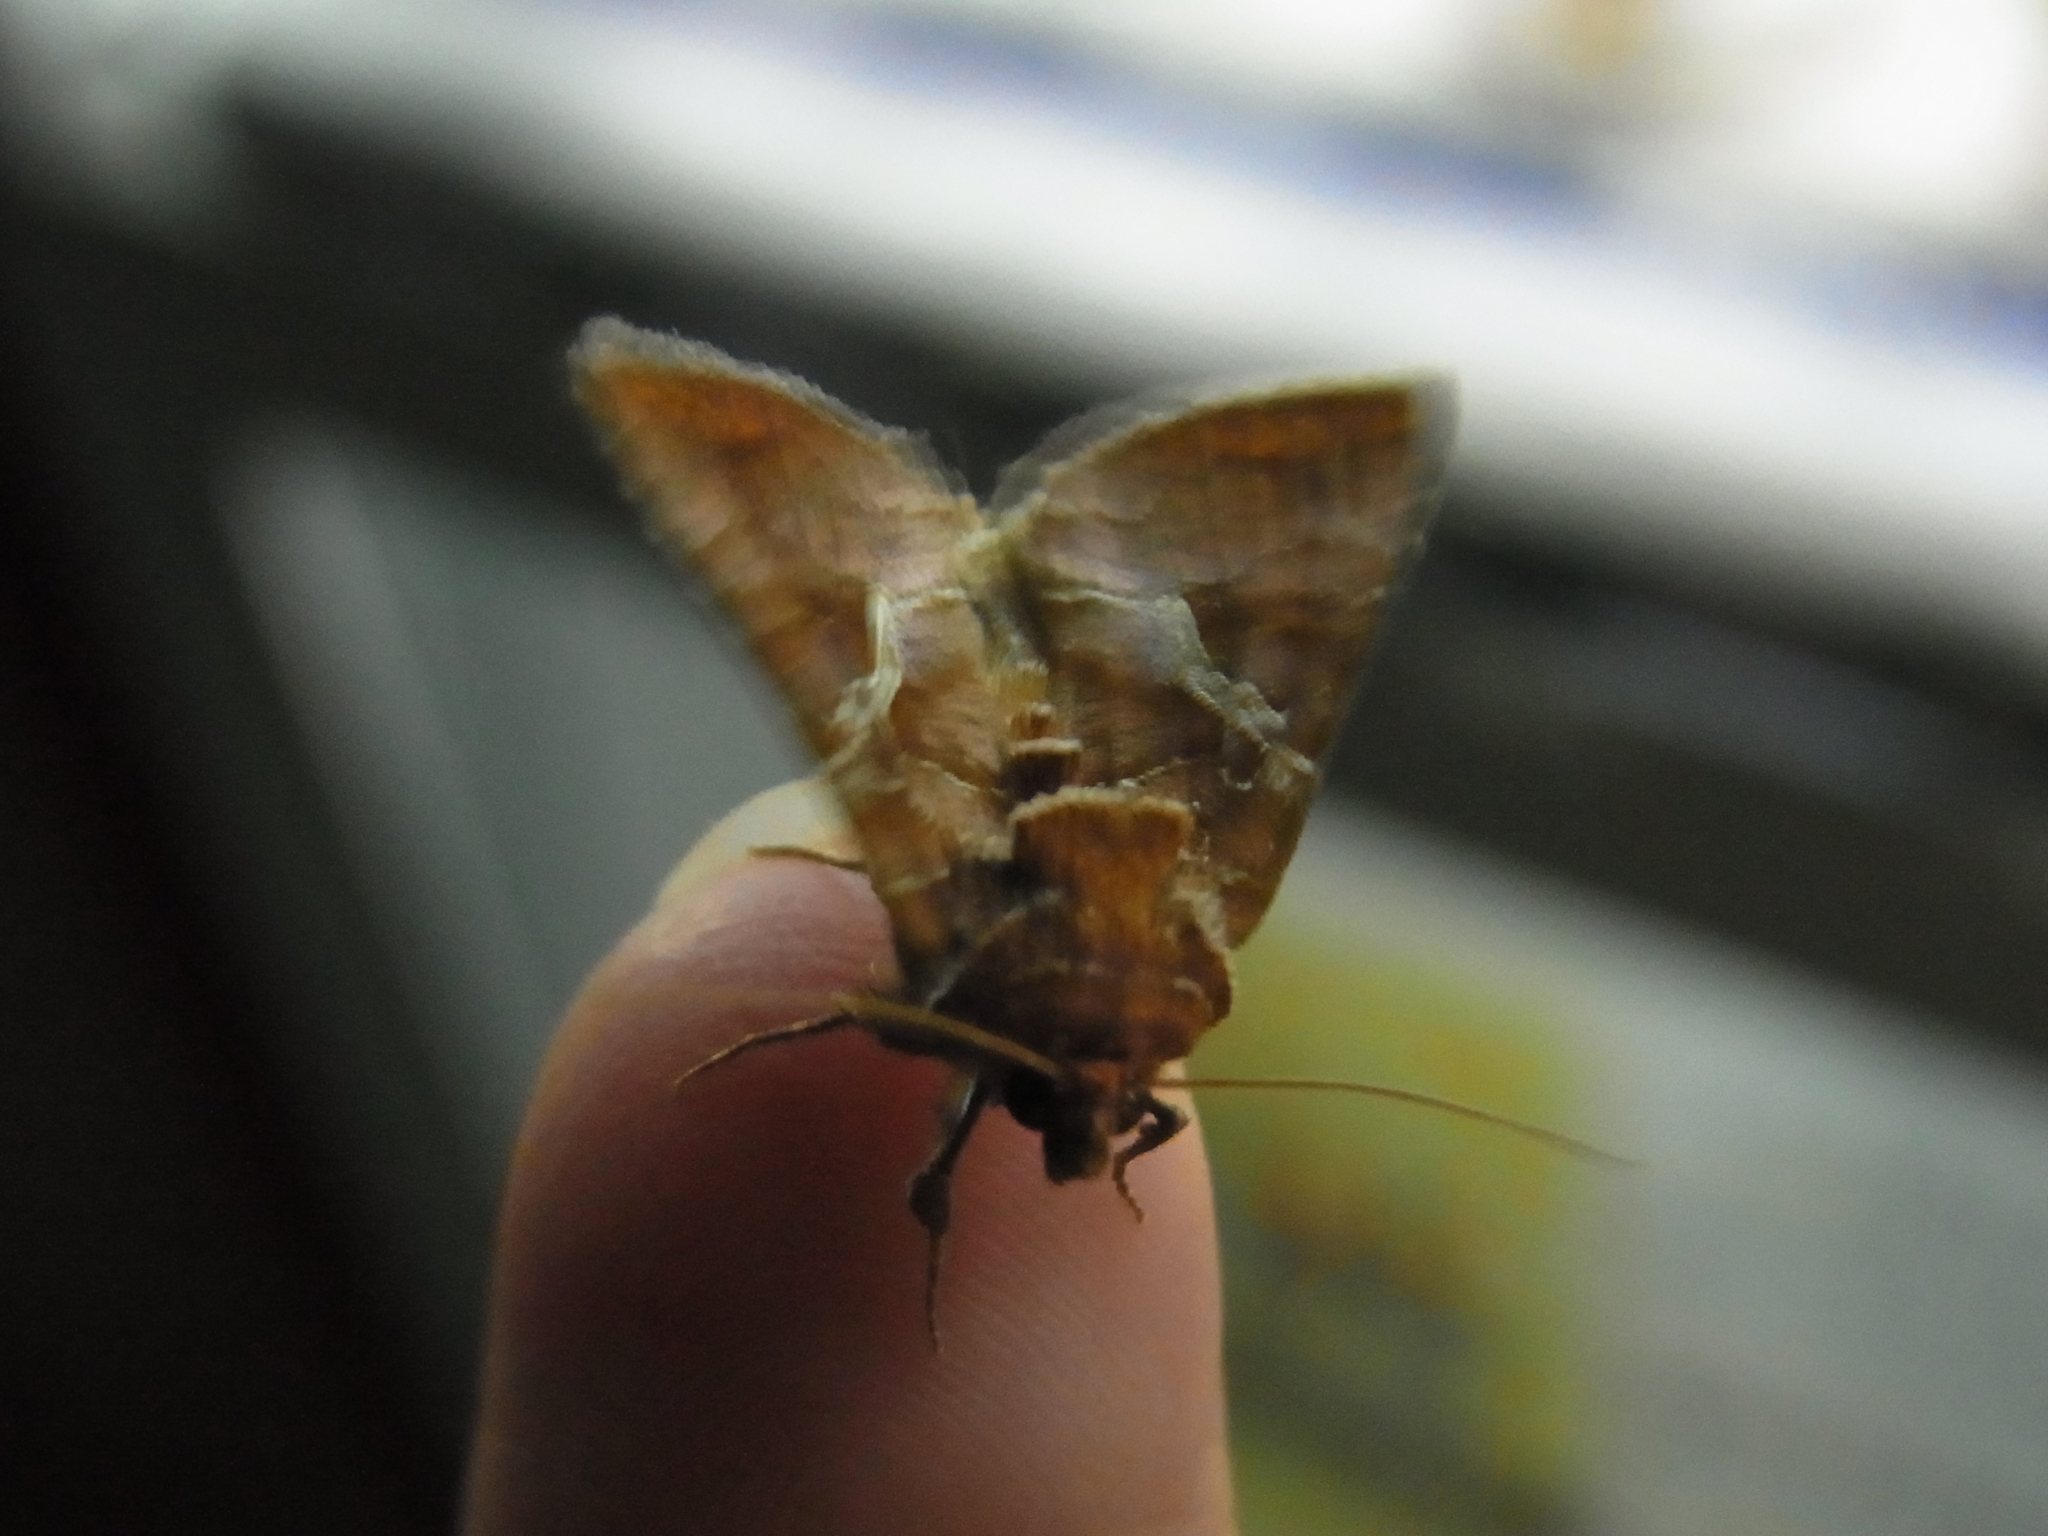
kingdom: Animalia
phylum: Arthropoda
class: Insecta
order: Lepidoptera
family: Noctuidae
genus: Zonoplusia
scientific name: Zonoplusia ochreata
